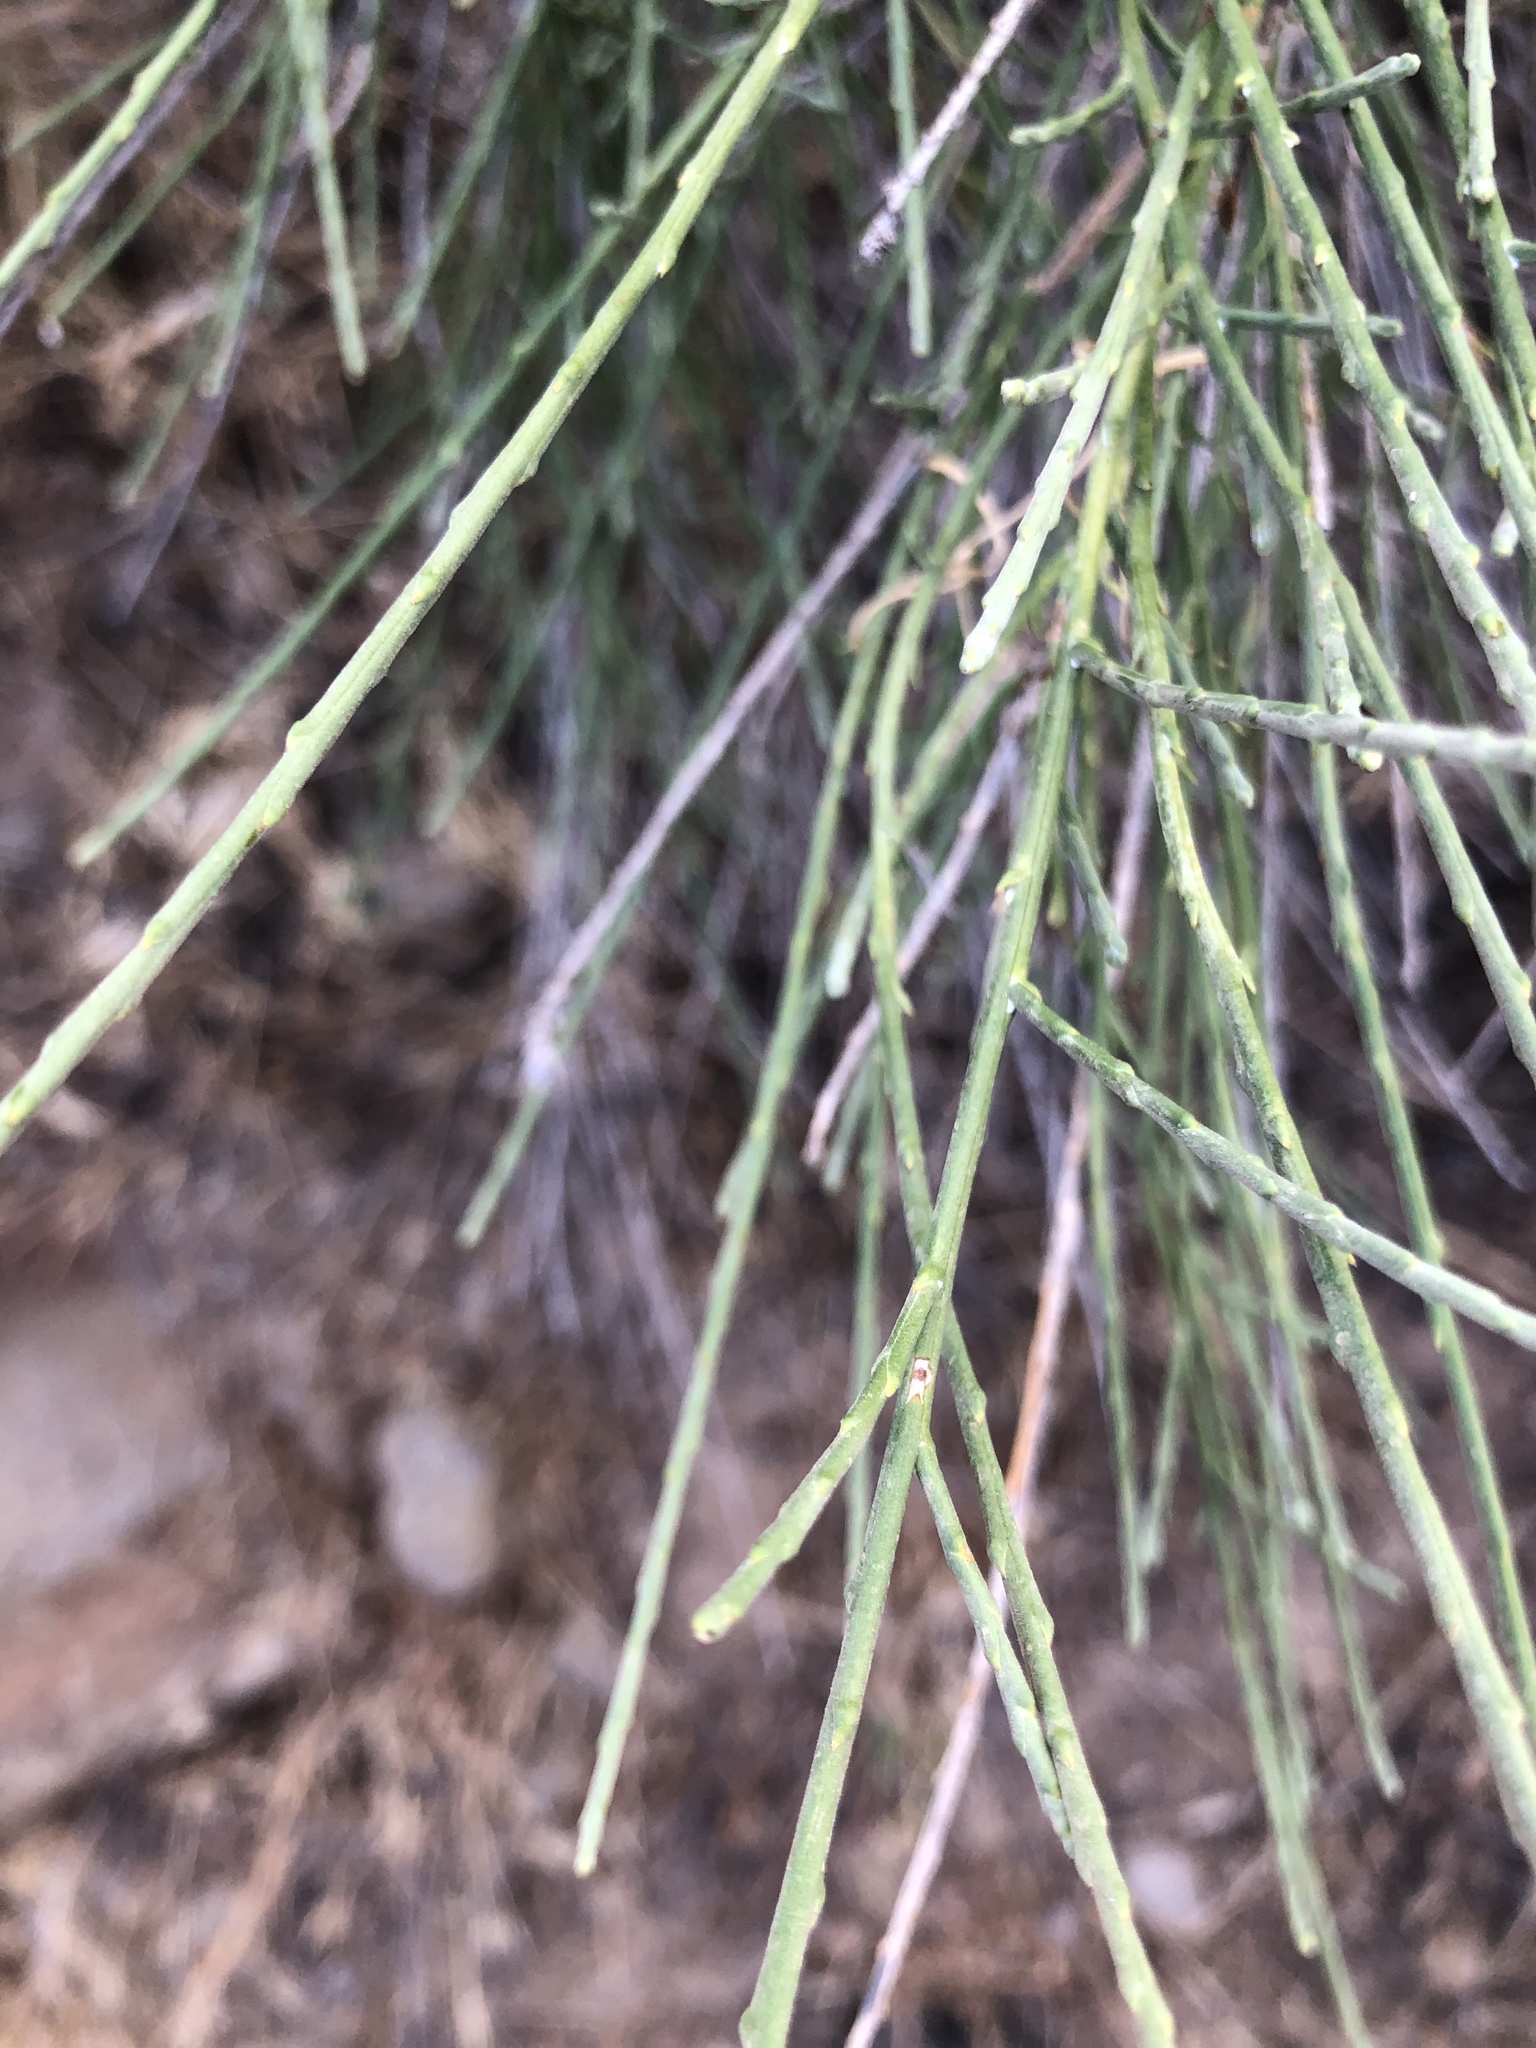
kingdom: Plantae
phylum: Tracheophyta
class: Magnoliopsida
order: Asterales
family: Asteraceae
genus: Lepidospartum
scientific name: Lepidospartum squamatum
